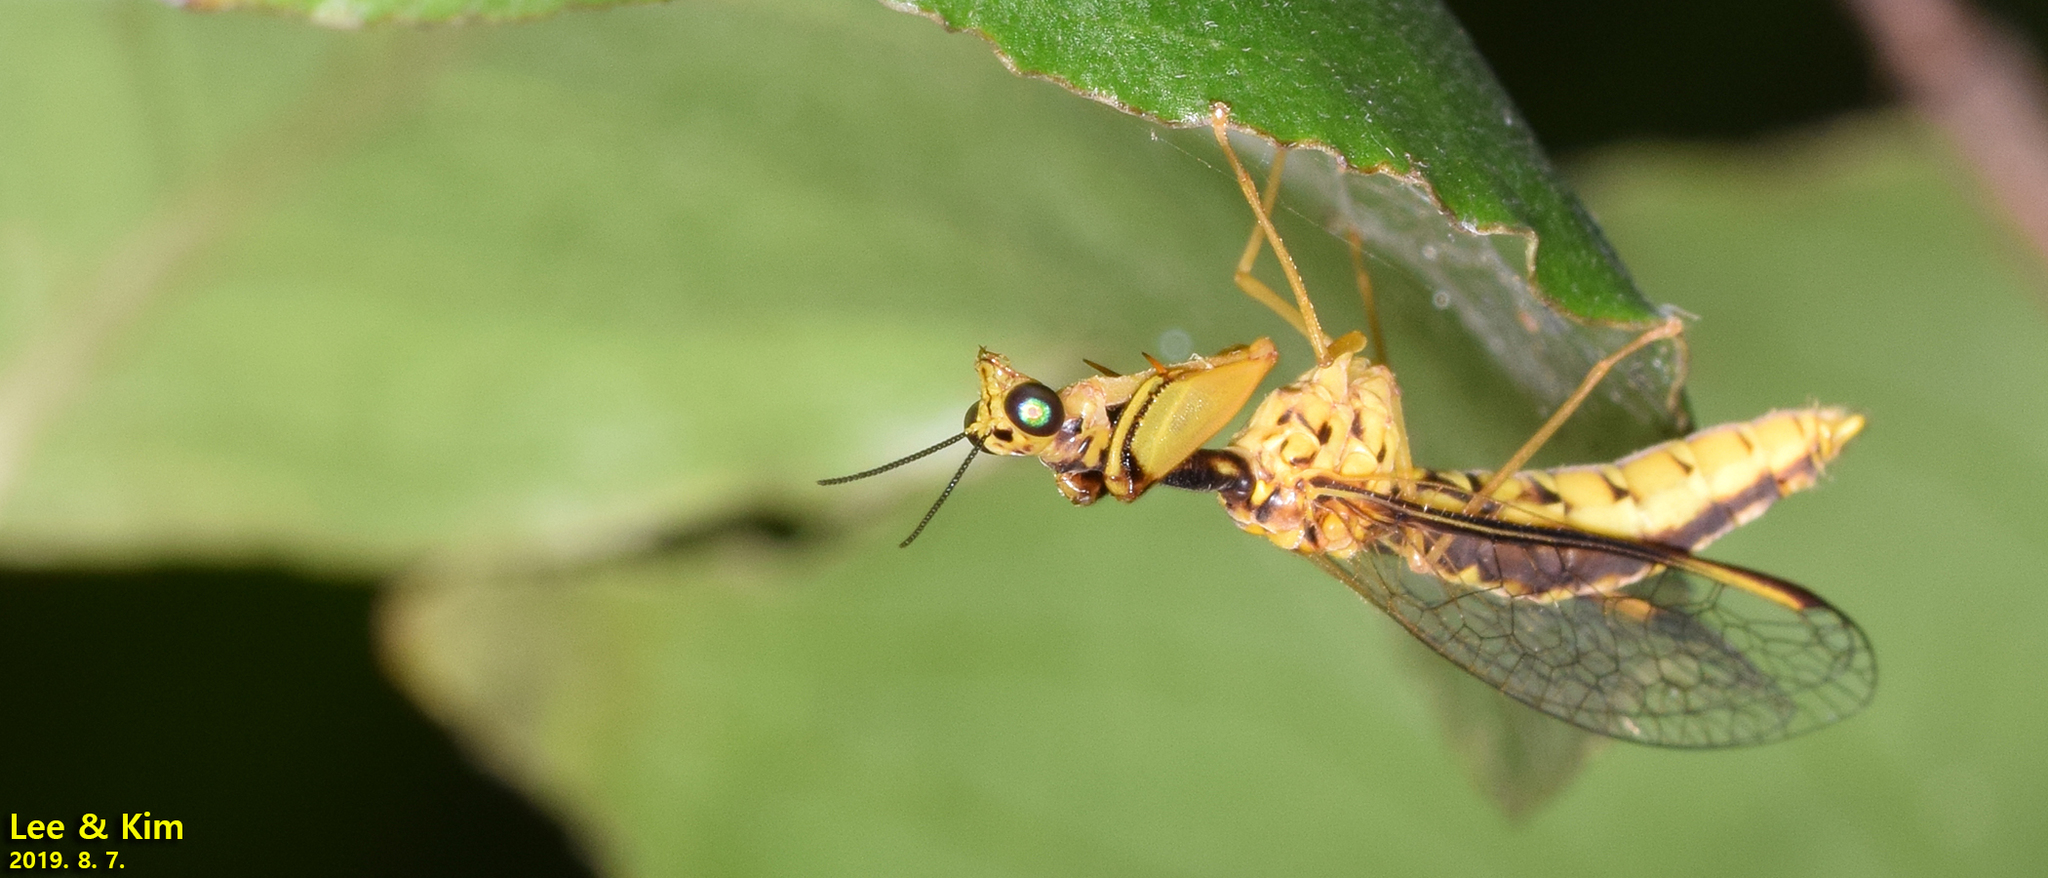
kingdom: Animalia
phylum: Arthropoda
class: Insecta
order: Neuroptera
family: Mantispidae
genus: Mantispa
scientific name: Mantispa japonica
